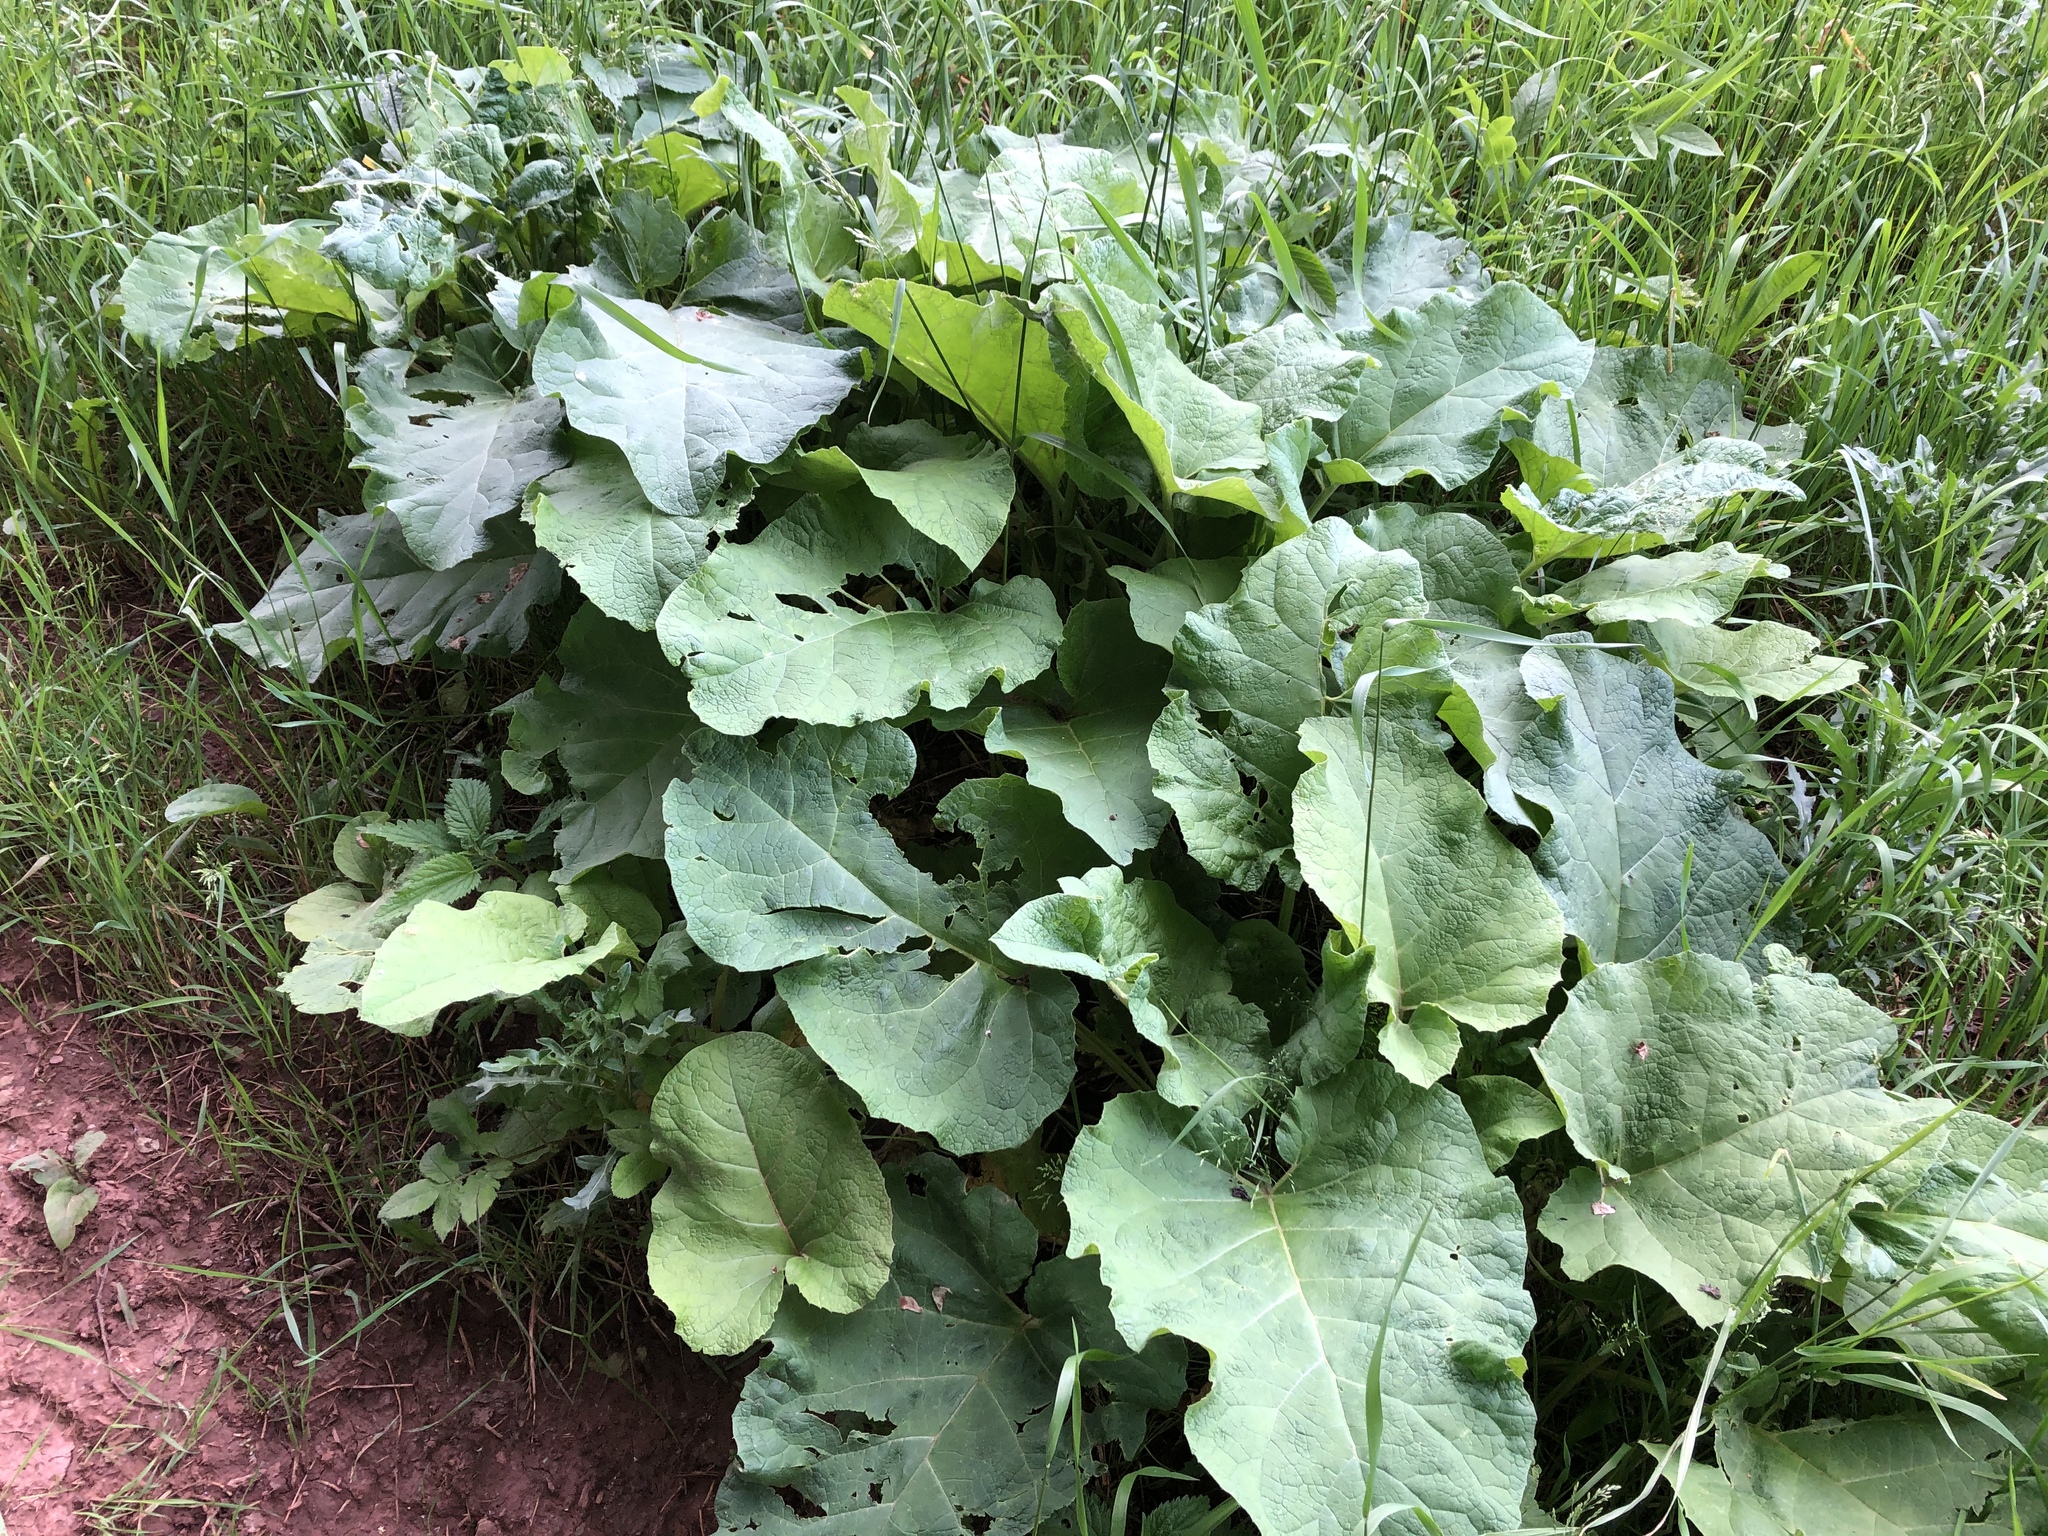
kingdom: Plantae
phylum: Tracheophyta
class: Magnoliopsida
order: Asterales
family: Asteraceae
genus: Arctium
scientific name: Arctium
